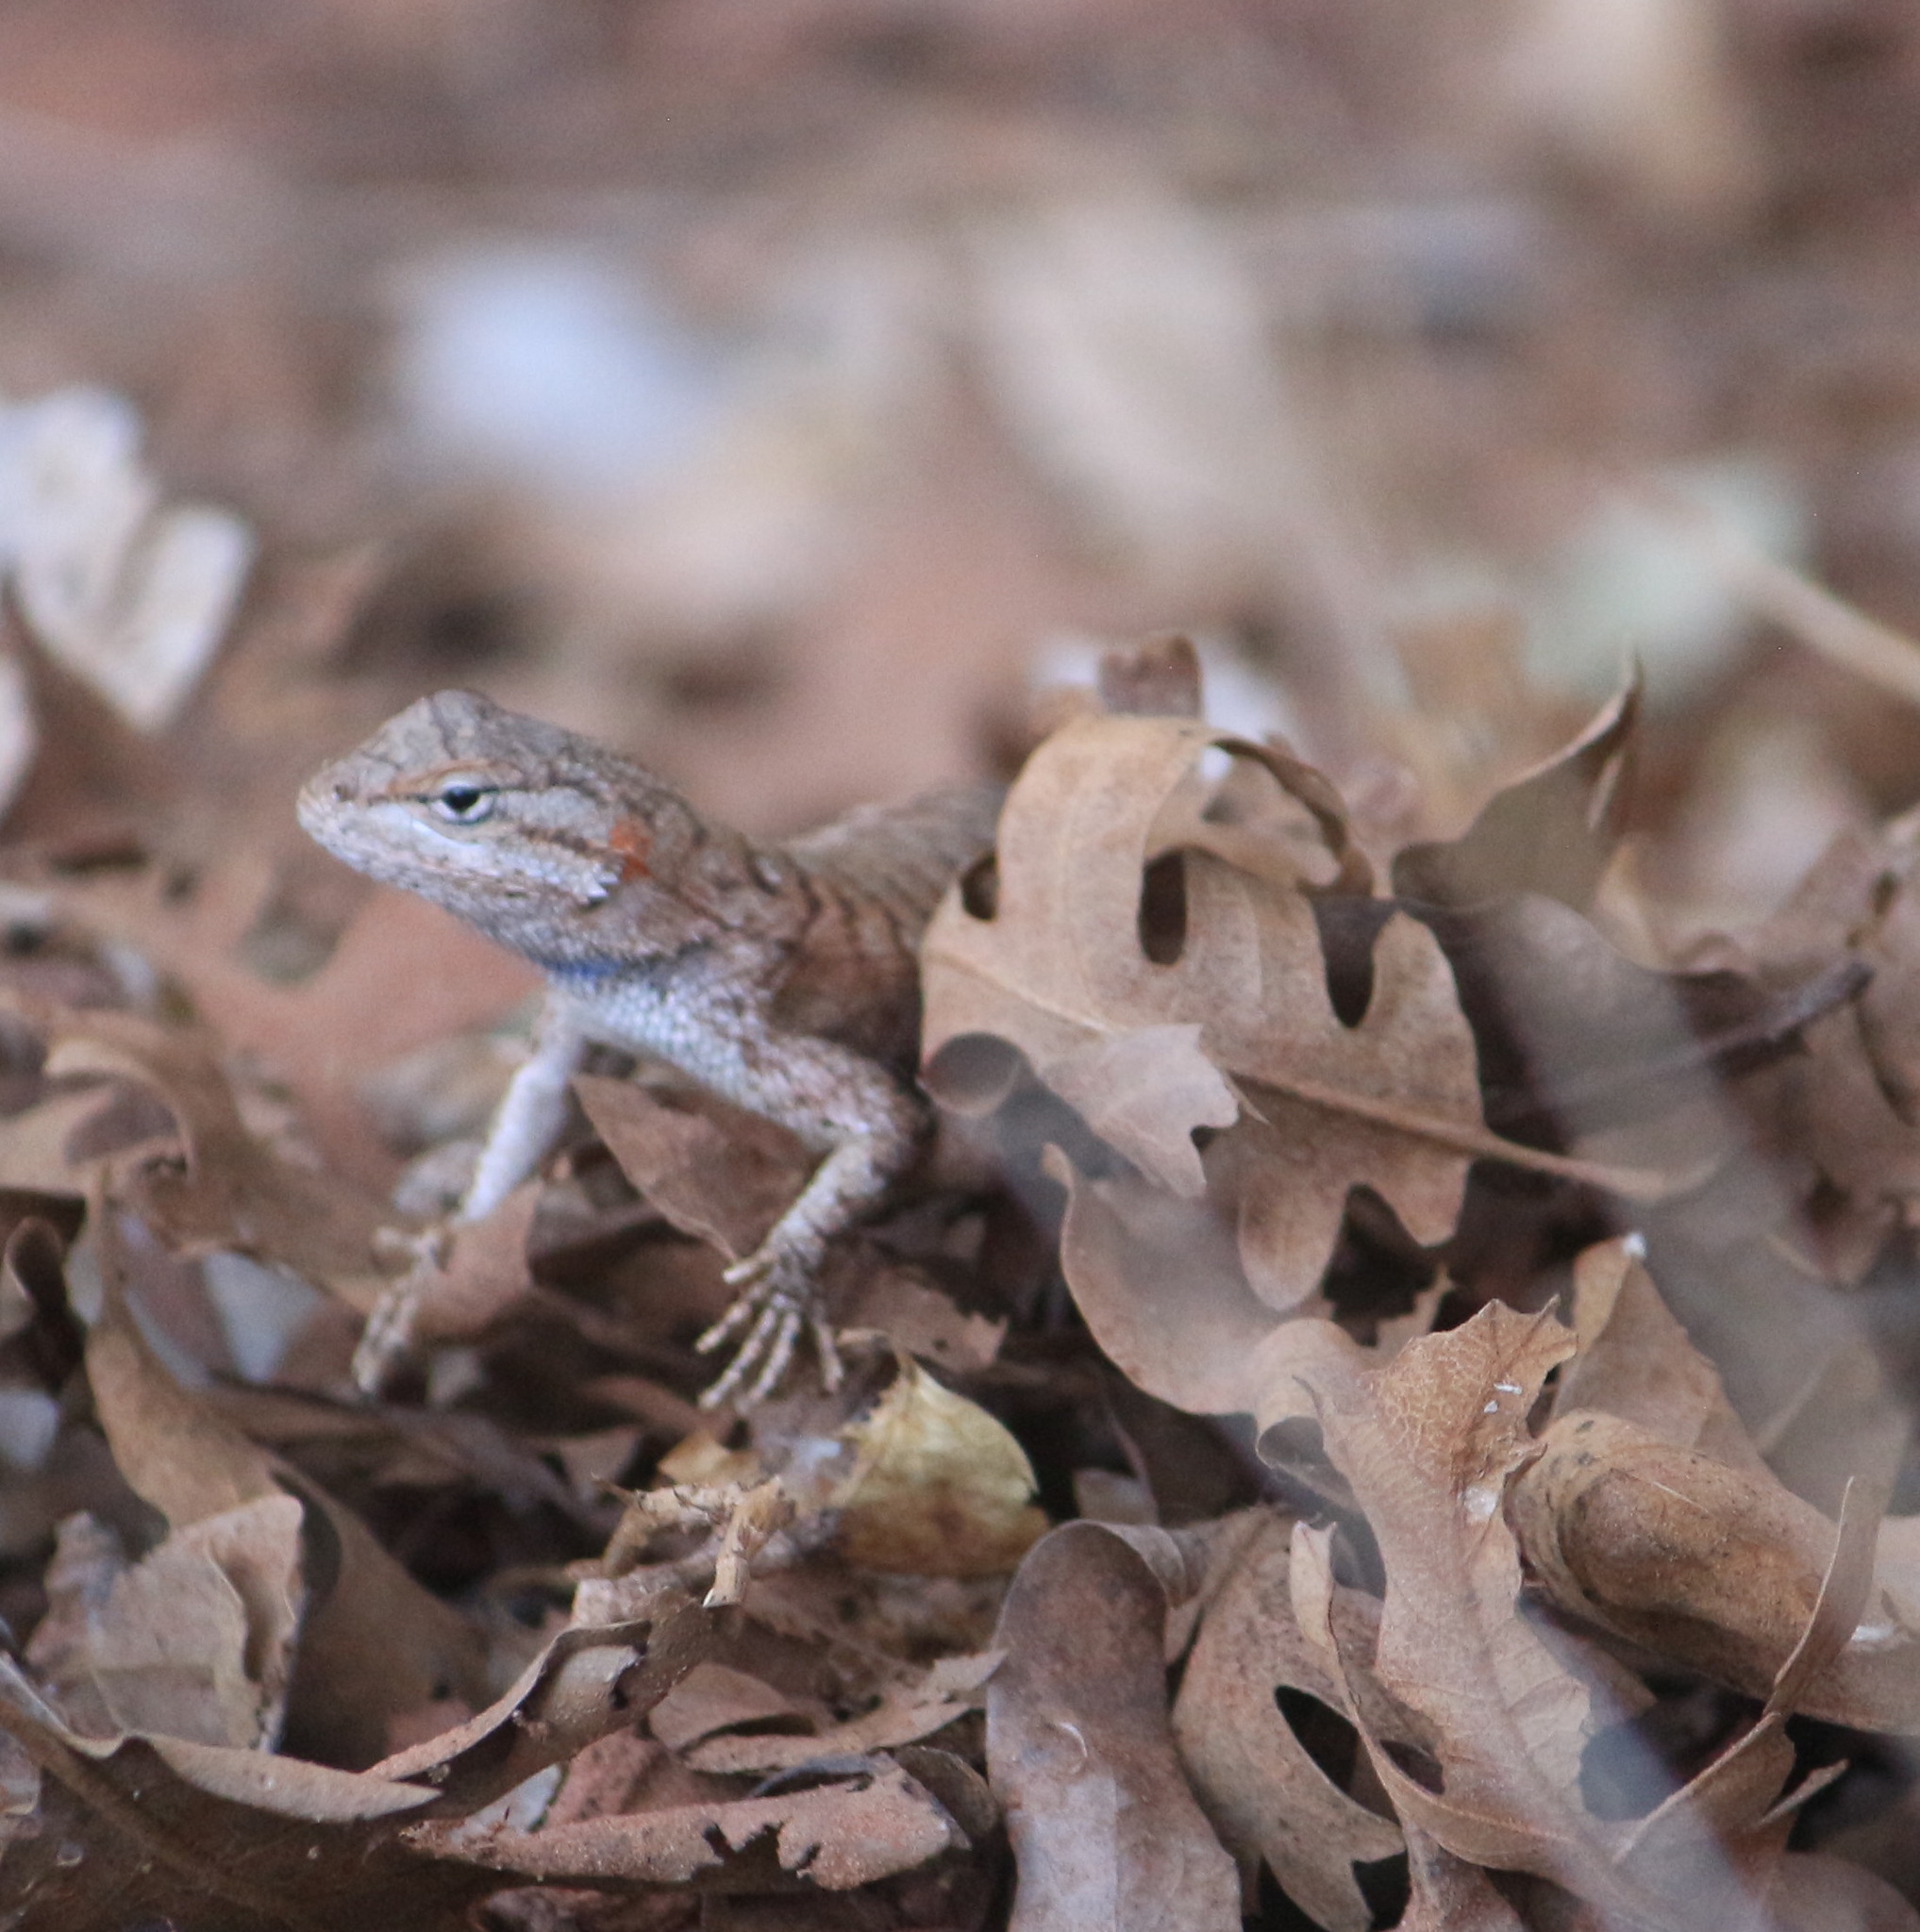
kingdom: Animalia
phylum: Chordata
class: Squamata
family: Phrynosomatidae
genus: Sceloporus
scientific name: Sceloporus tristichus
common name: Plateau fence lizard
